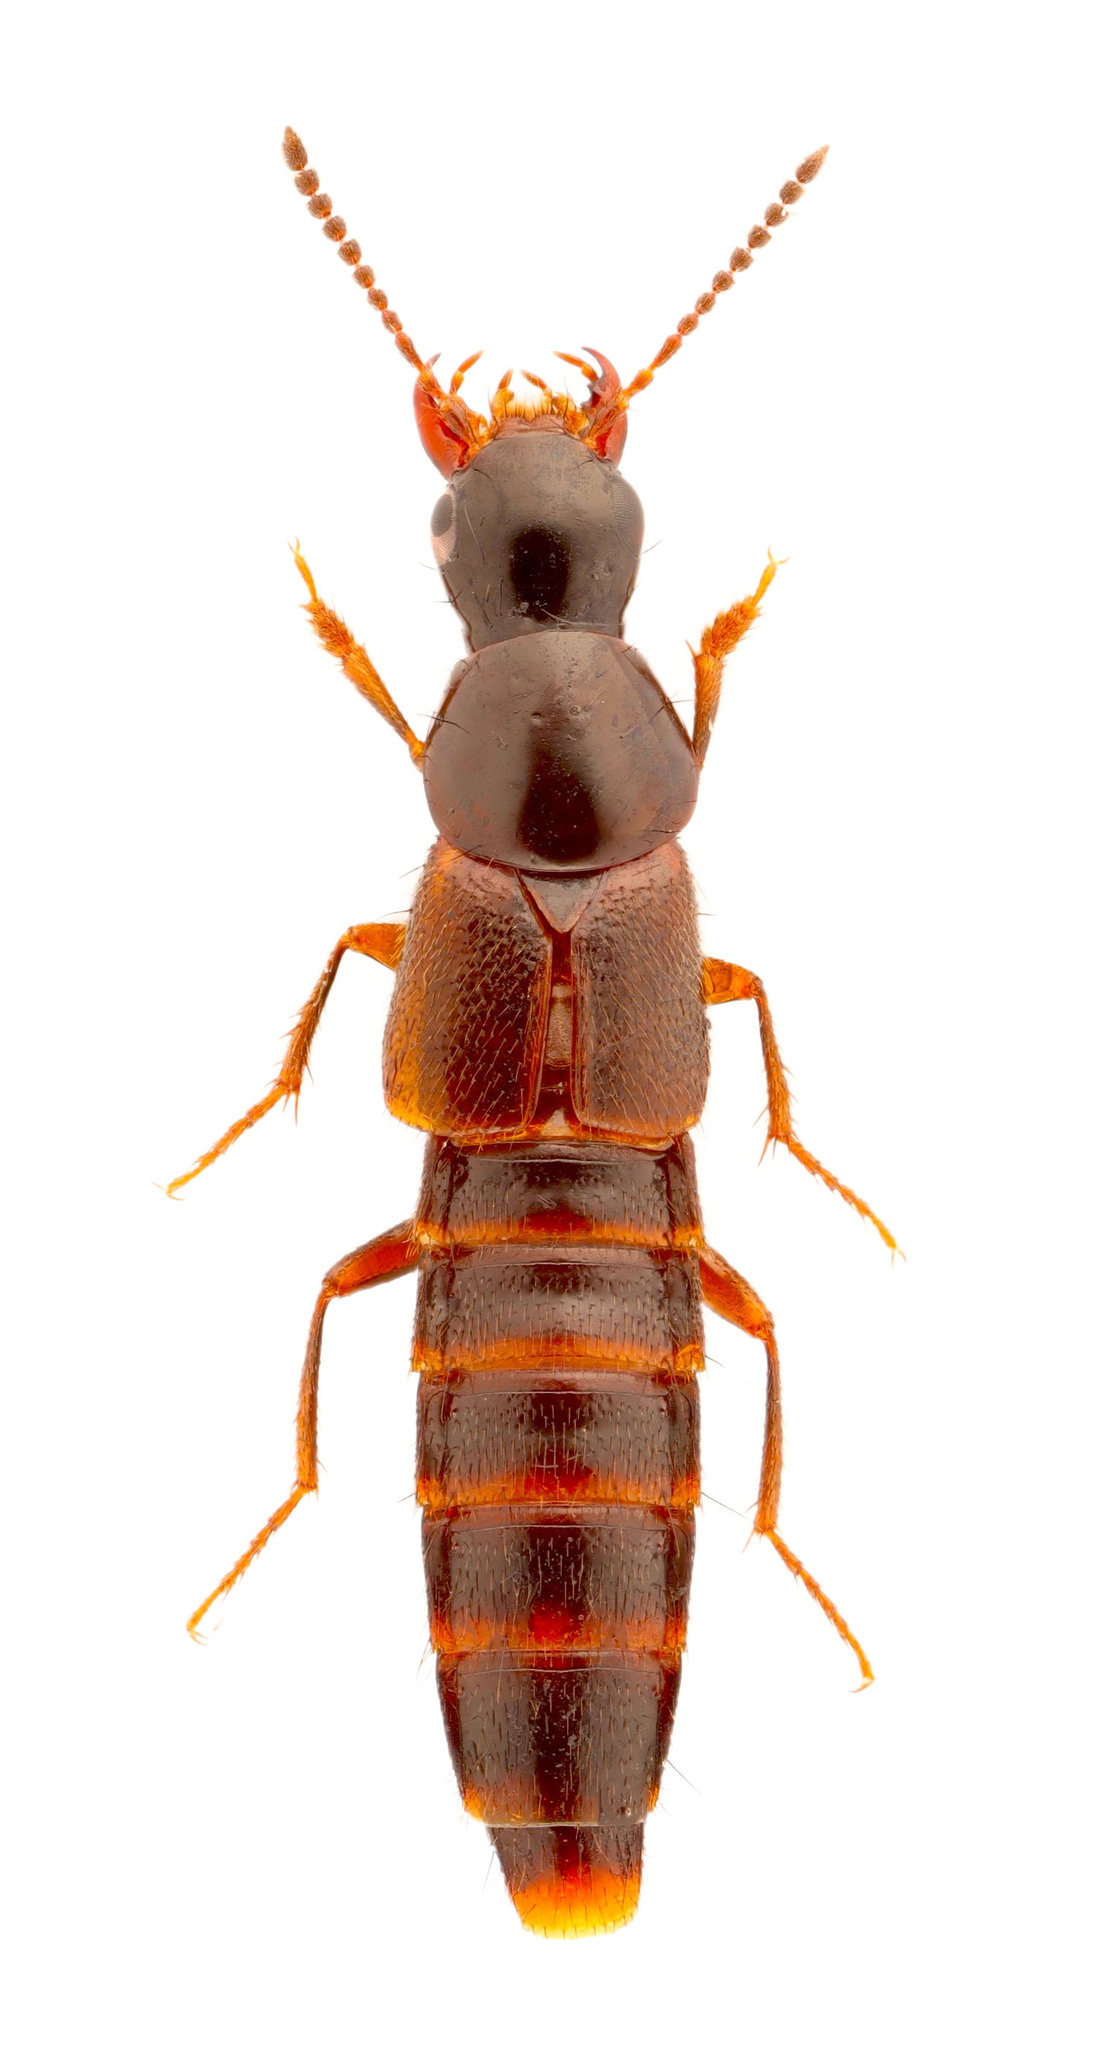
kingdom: Animalia
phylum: Arthropoda
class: Insecta
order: Coleoptera
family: Staphylinidae
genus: Quedius
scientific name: Quedius canadensis
